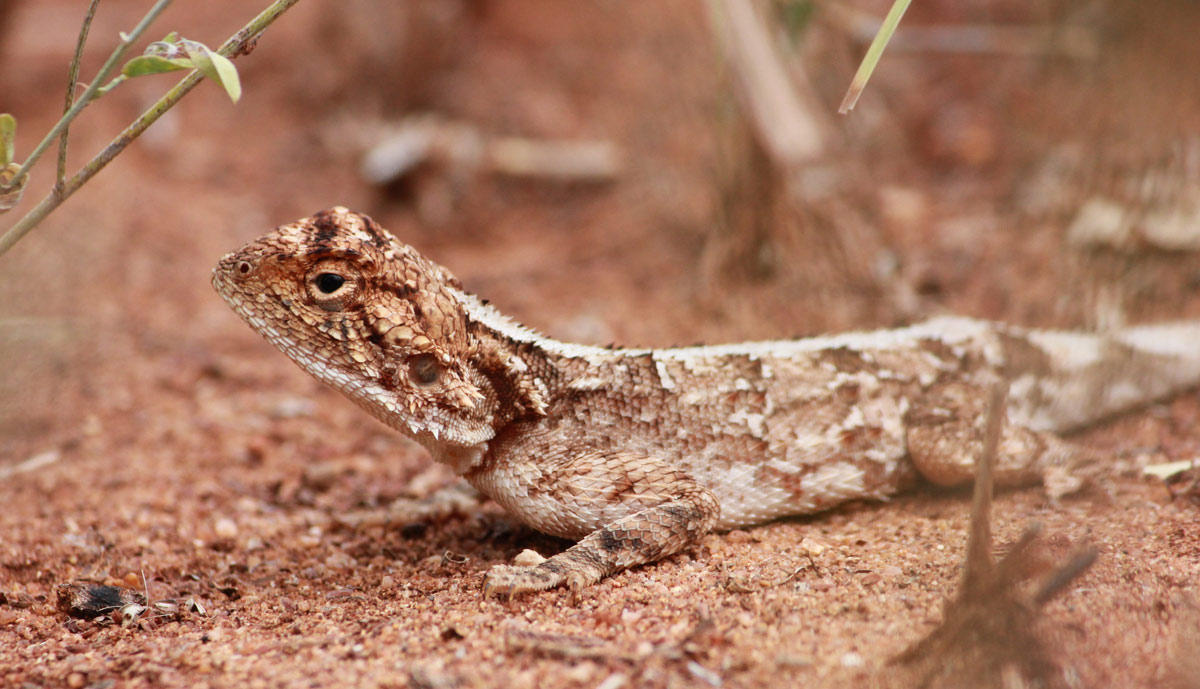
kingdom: Animalia
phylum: Chordata
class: Squamata
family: Agamidae
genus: Agama
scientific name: Agama armata
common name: Northern ground agama
